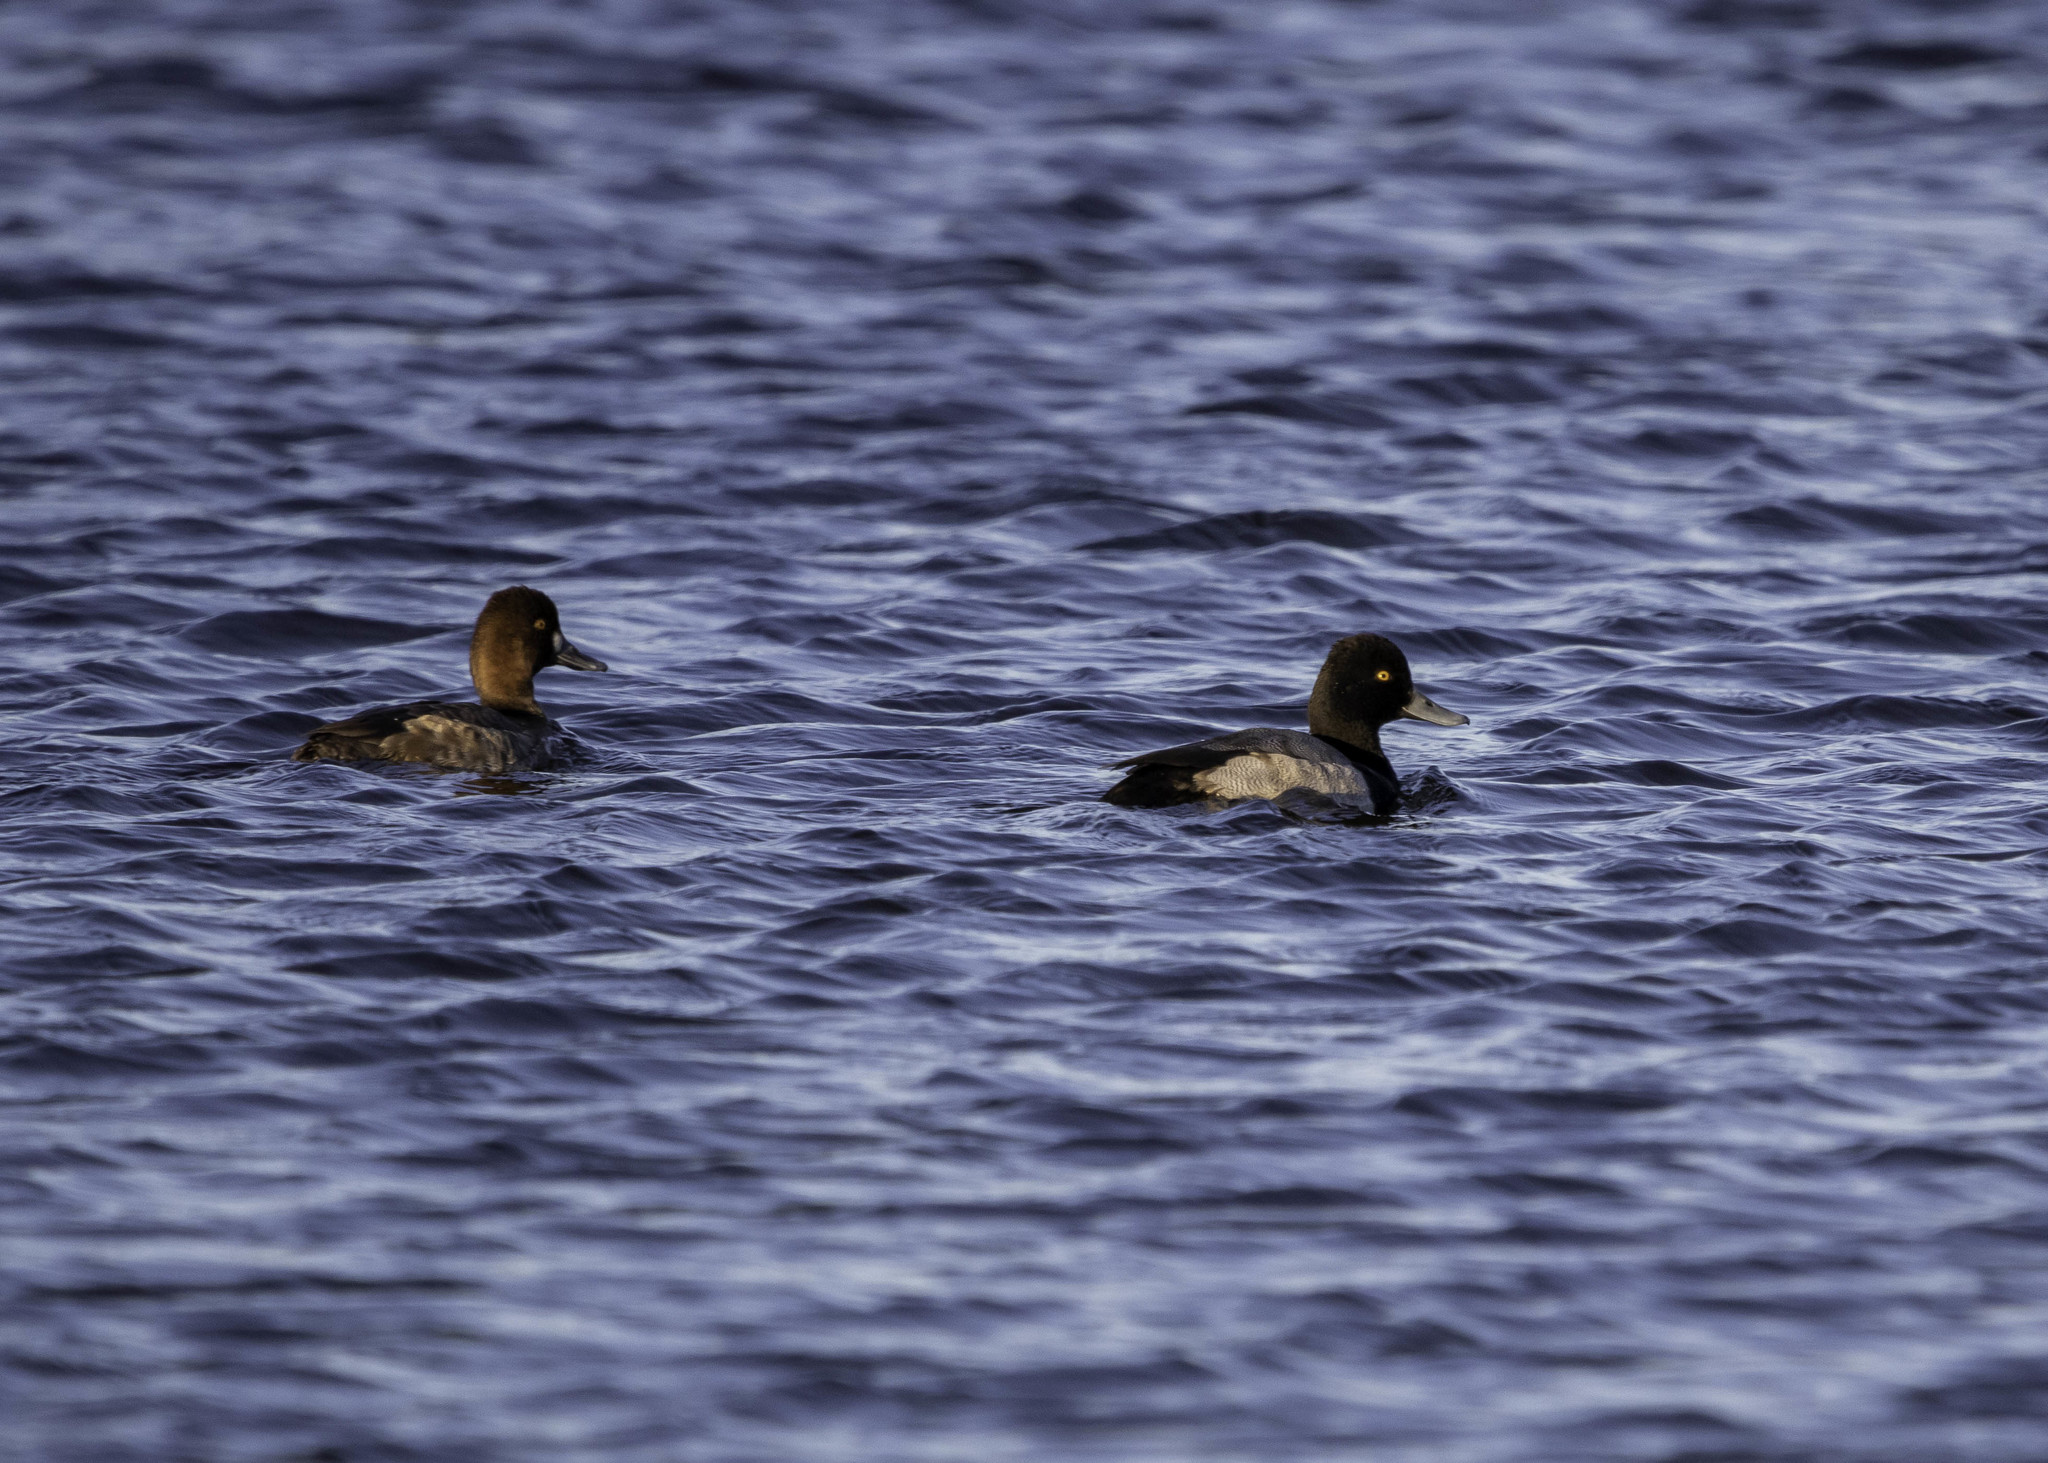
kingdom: Animalia
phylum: Chordata
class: Aves
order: Anseriformes
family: Anatidae
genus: Aythya
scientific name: Aythya affinis
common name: Lesser scaup
